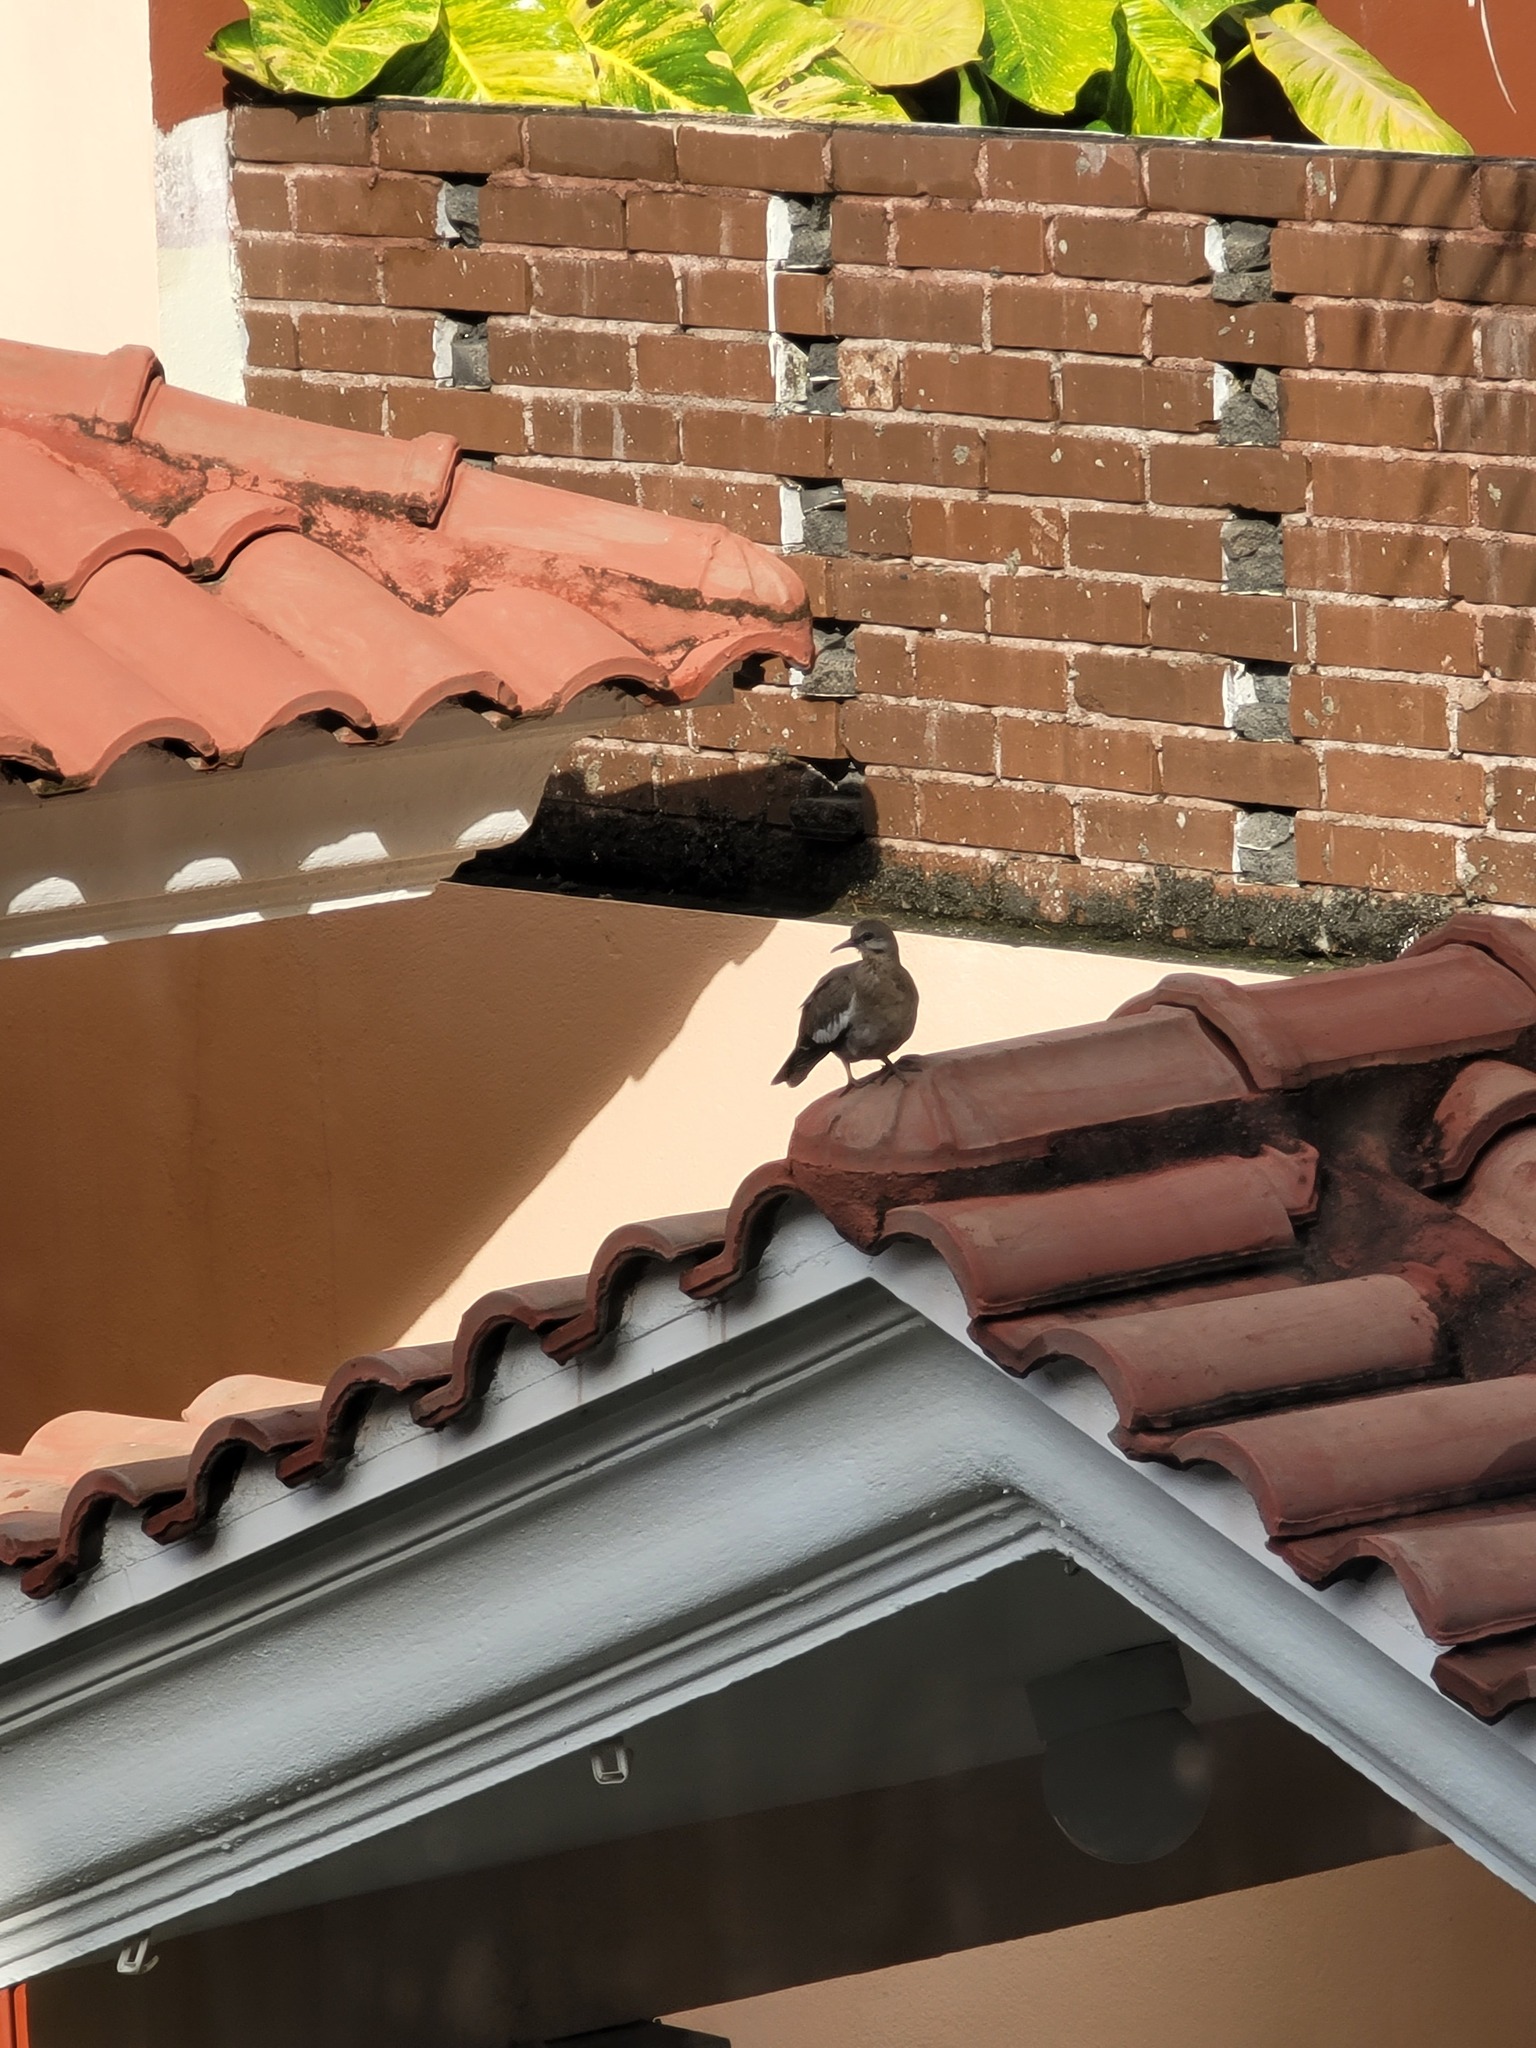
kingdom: Animalia
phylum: Chordata
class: Aves
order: Columbiformes
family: Columbidae
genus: Zenaida
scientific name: Zenaida asiatica
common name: White-winged dove
